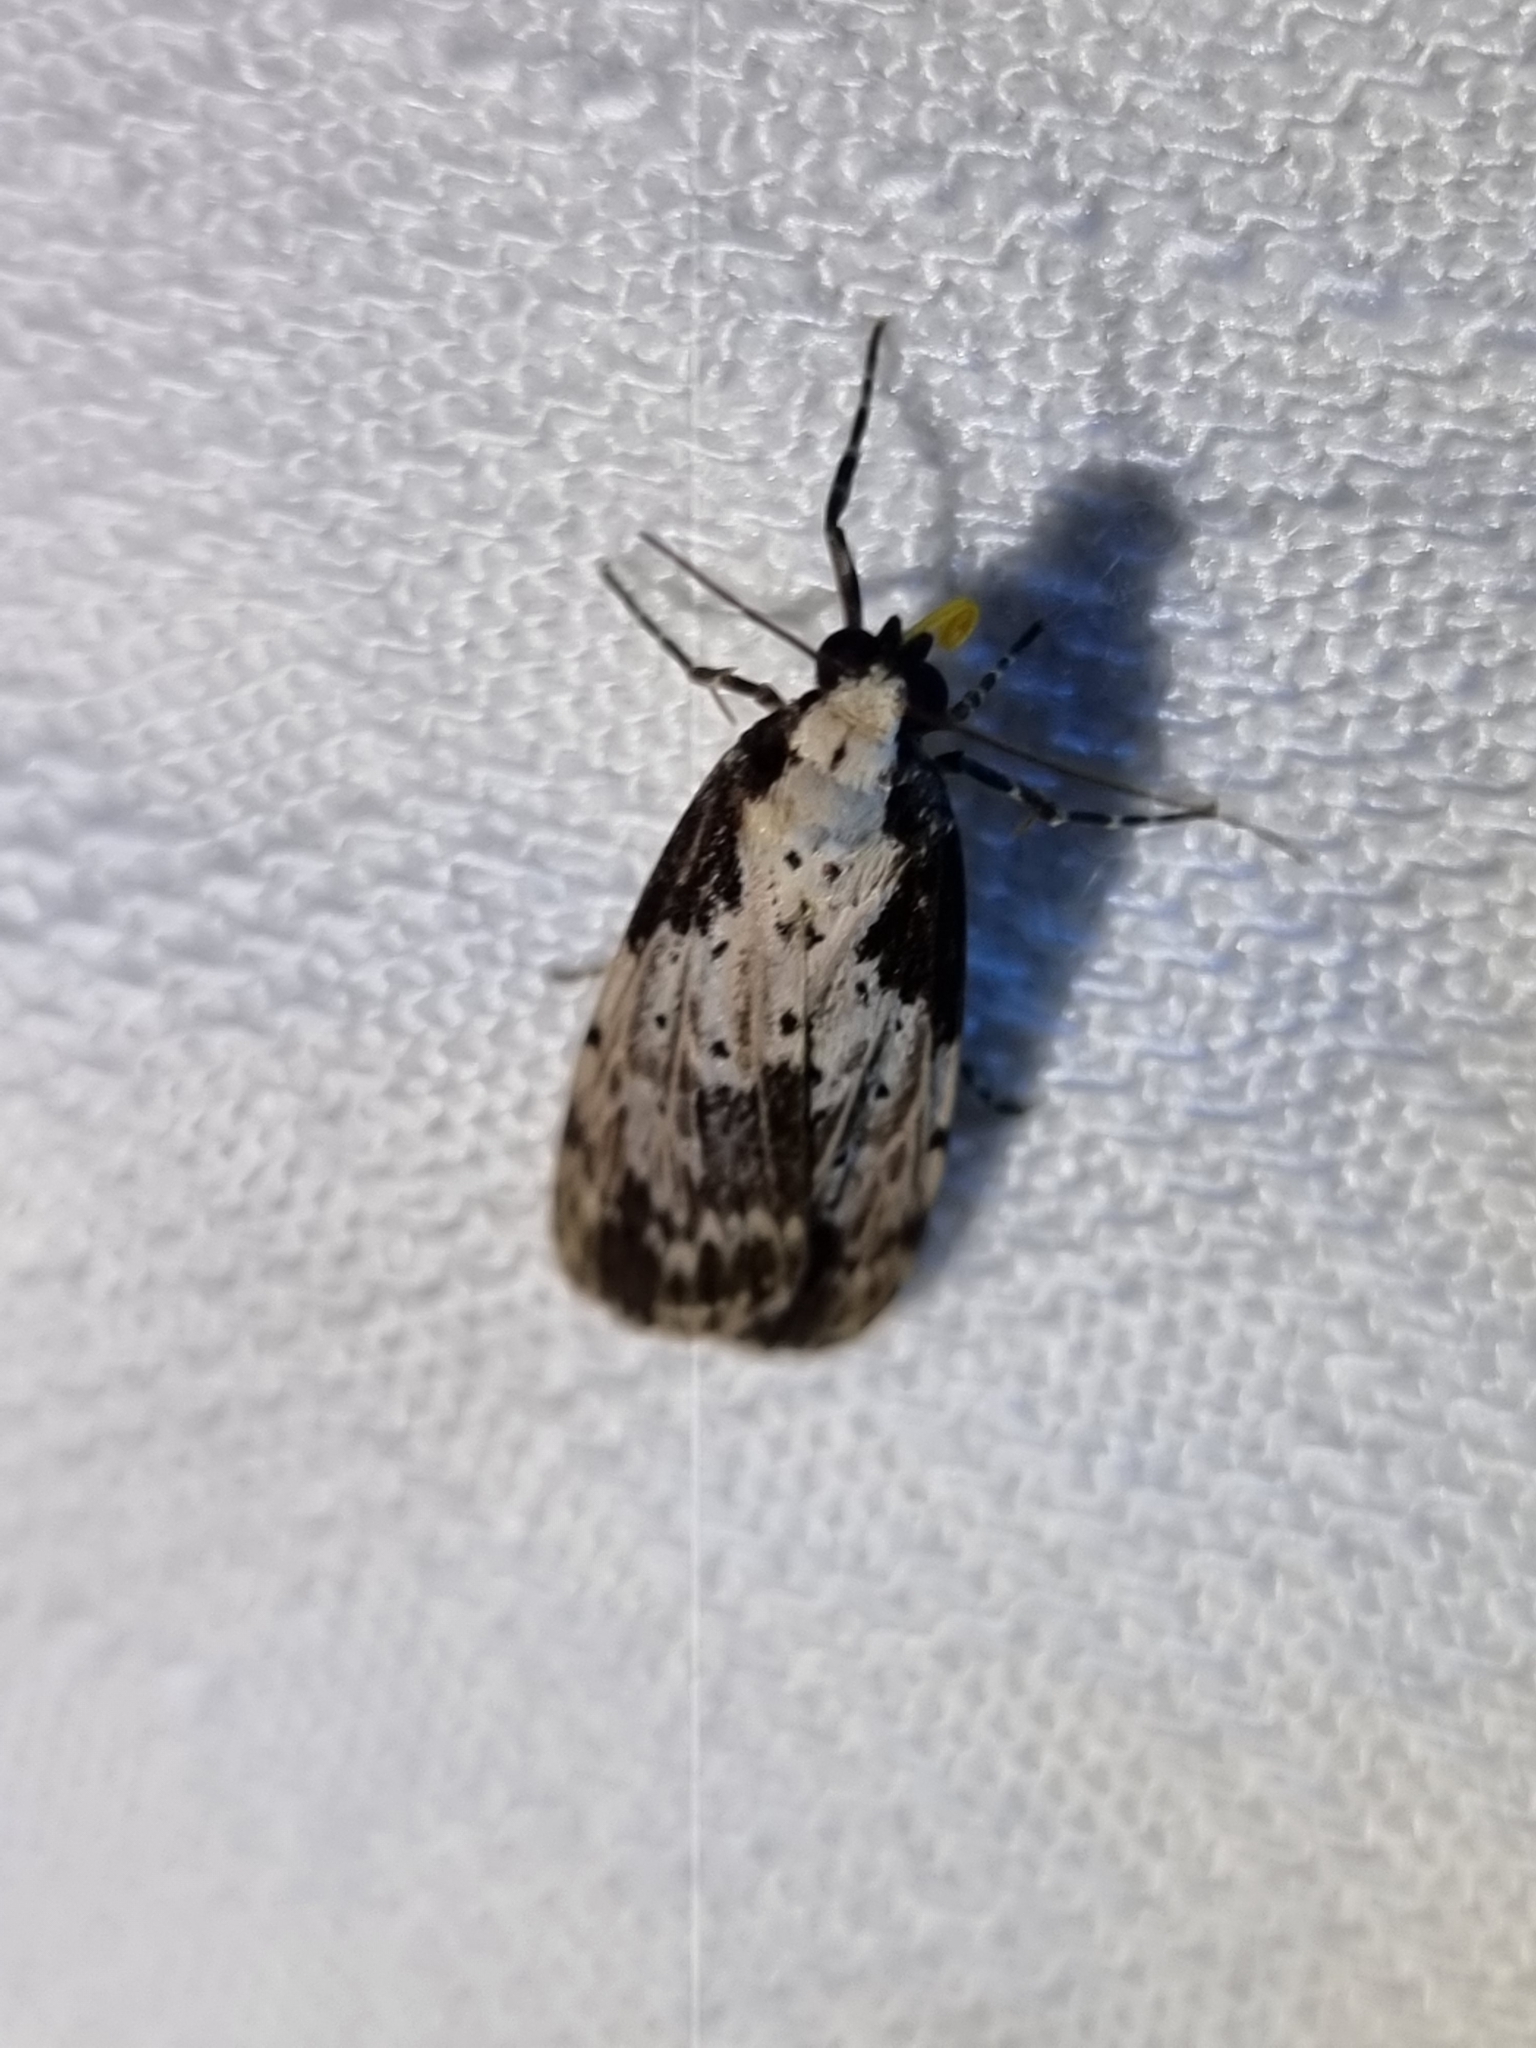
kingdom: Animalia
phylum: Arthropoda
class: Insecta
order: Lepidoptera
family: Erebidae
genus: Digama
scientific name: Digama Sommeria marmorea
